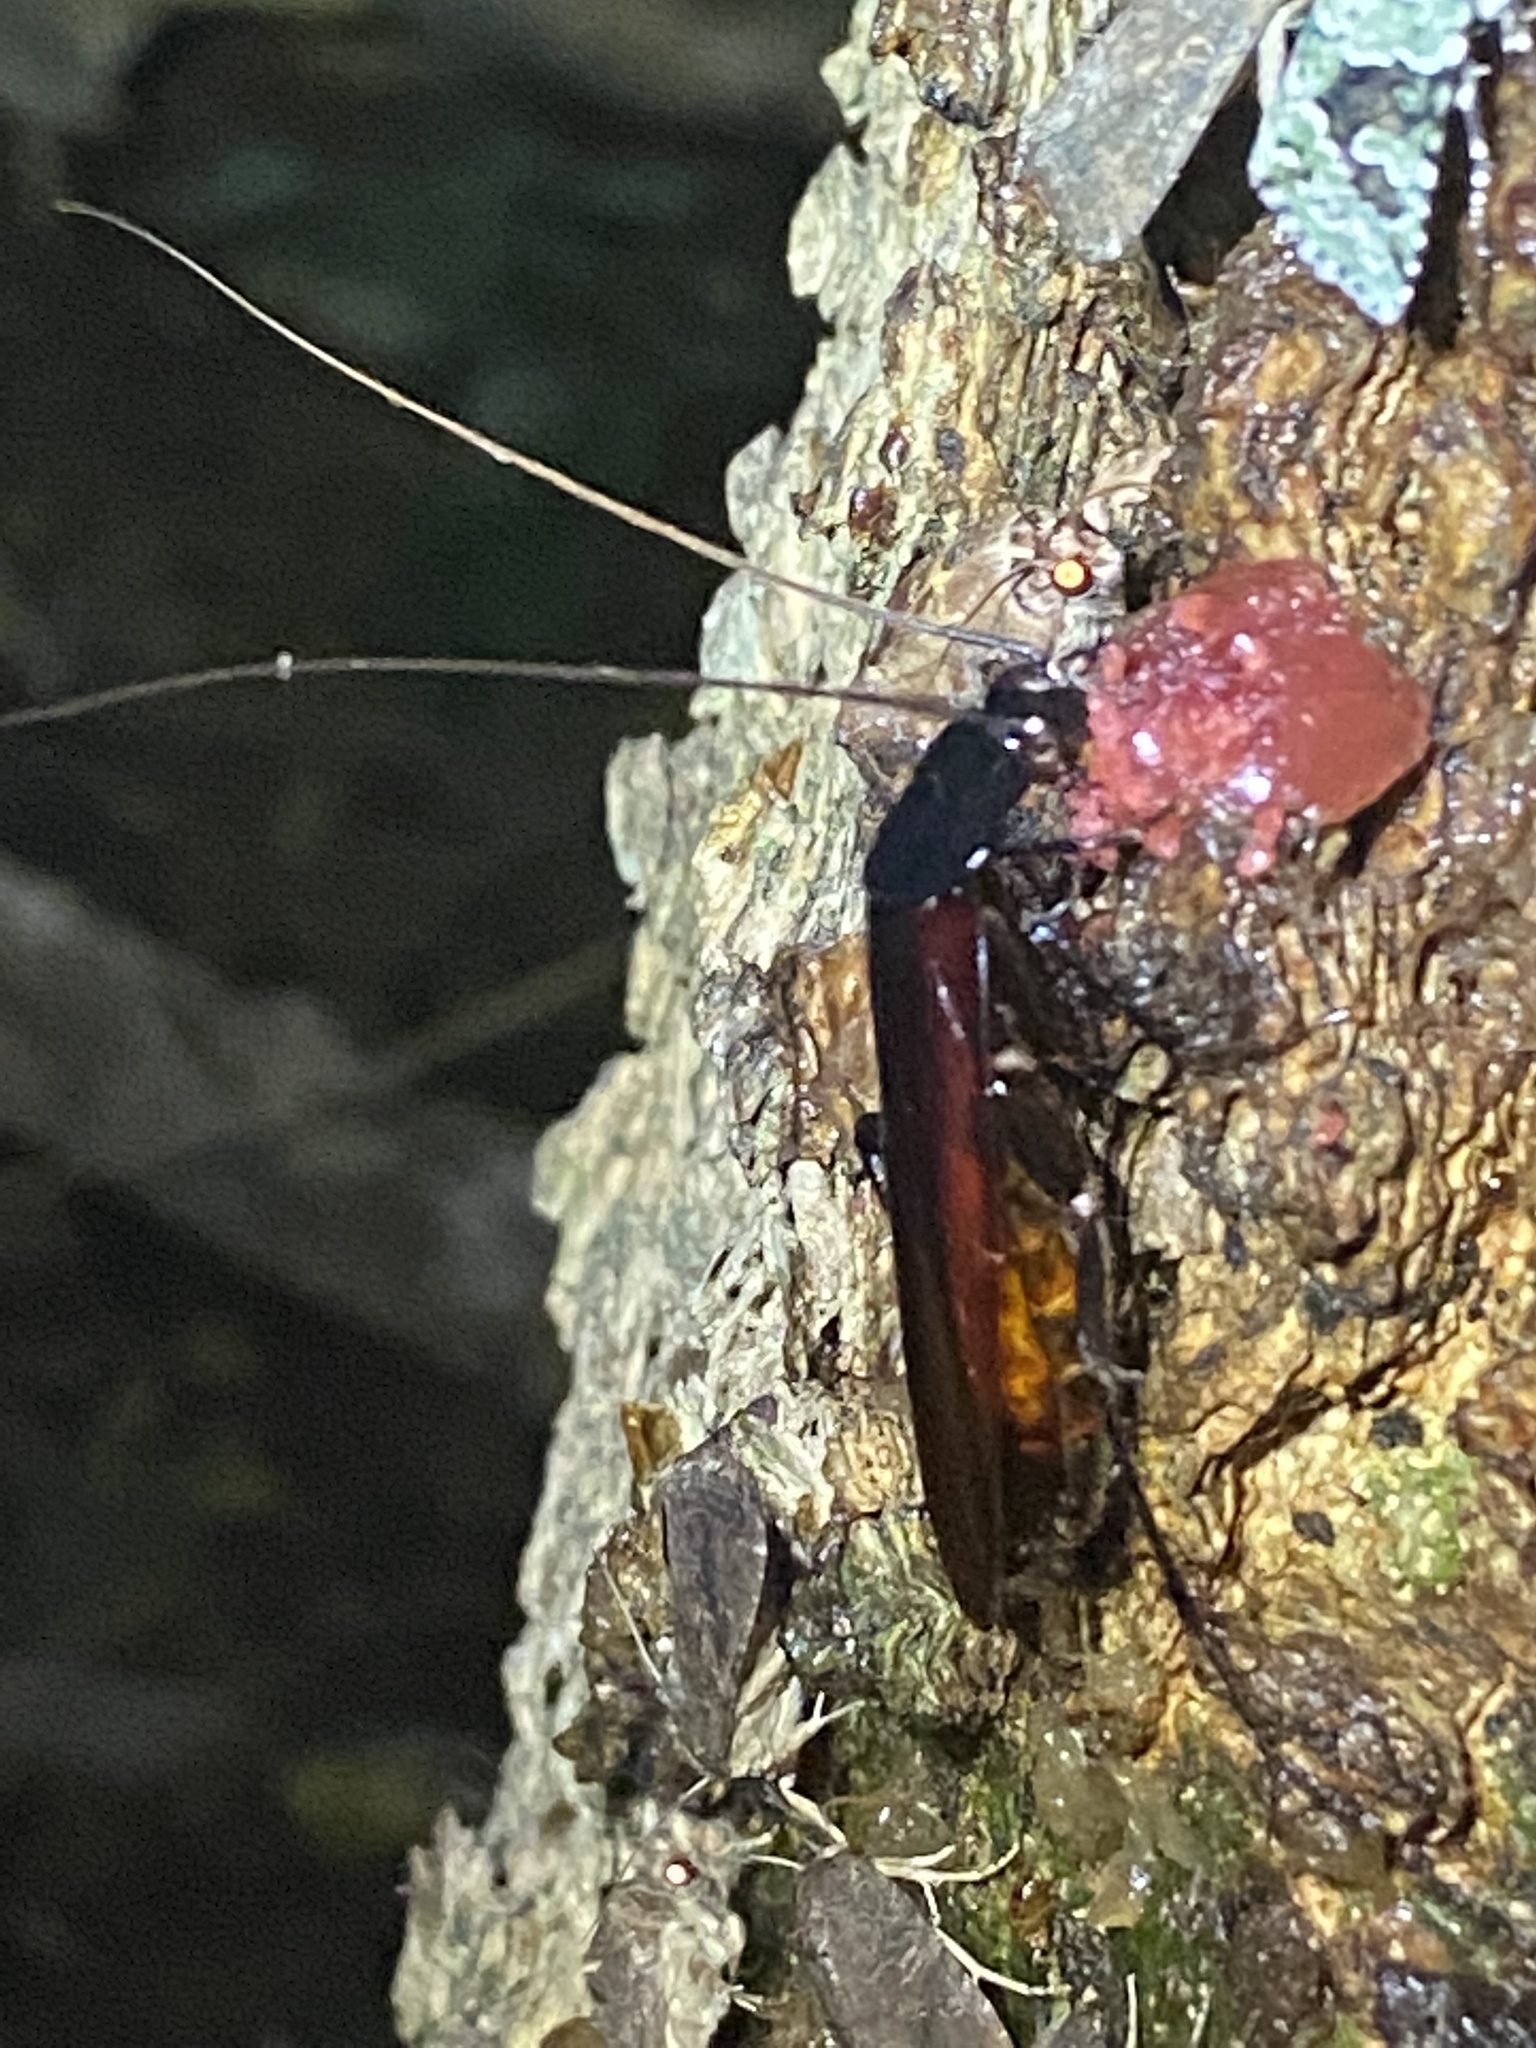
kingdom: Animalia
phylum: Arthropoda
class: Insecta
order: Blattodea
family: Blattidae
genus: Periplaneta
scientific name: Periplaneta fuliginosa
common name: Smokeybrown cockroad
